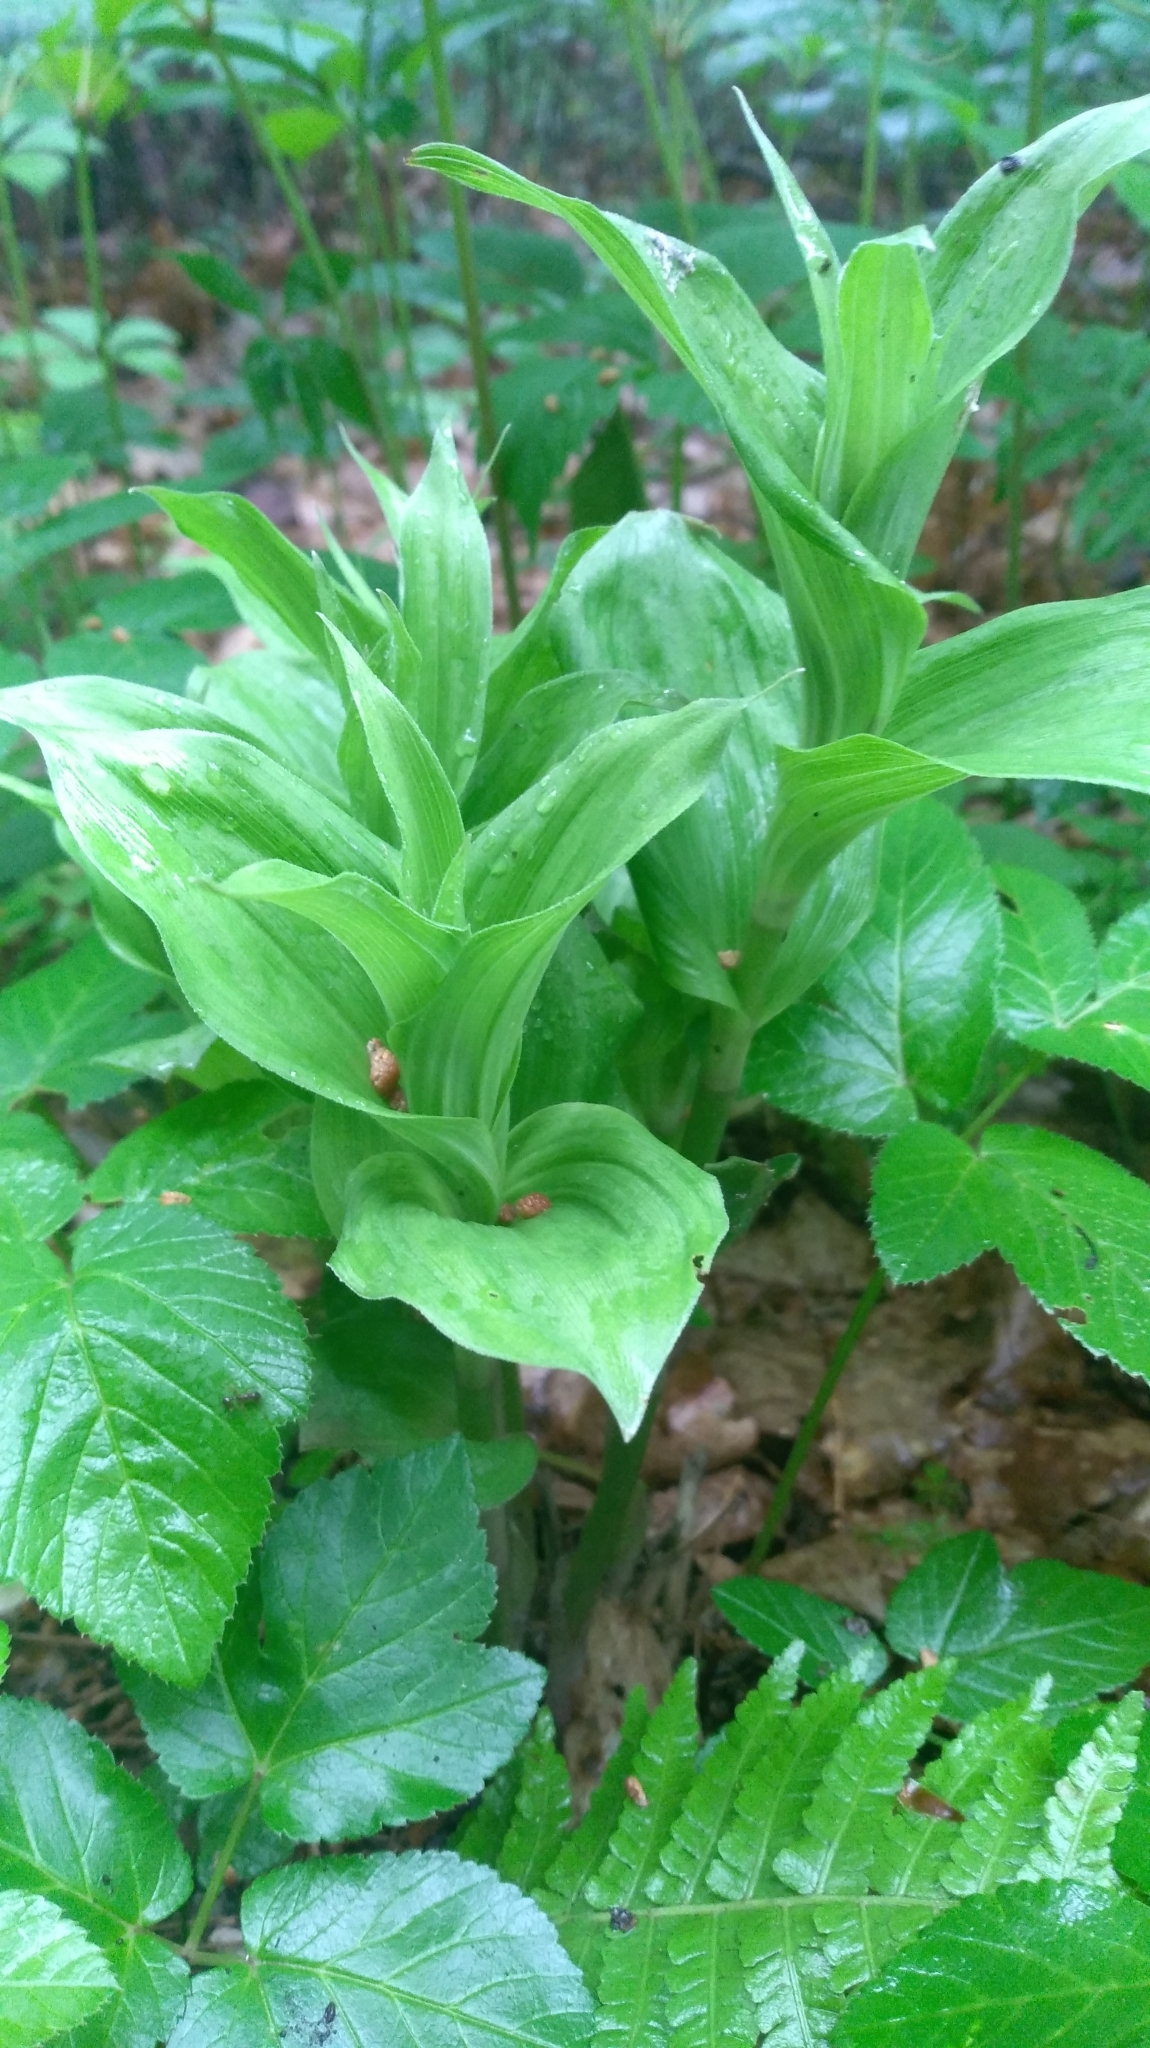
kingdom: Plantae
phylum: Tracheophyta
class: Liliopsida
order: Asparagales
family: Orchidaceae
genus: Epipactis
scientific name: Epipactis helleborine
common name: Broad-leaved helleborine
